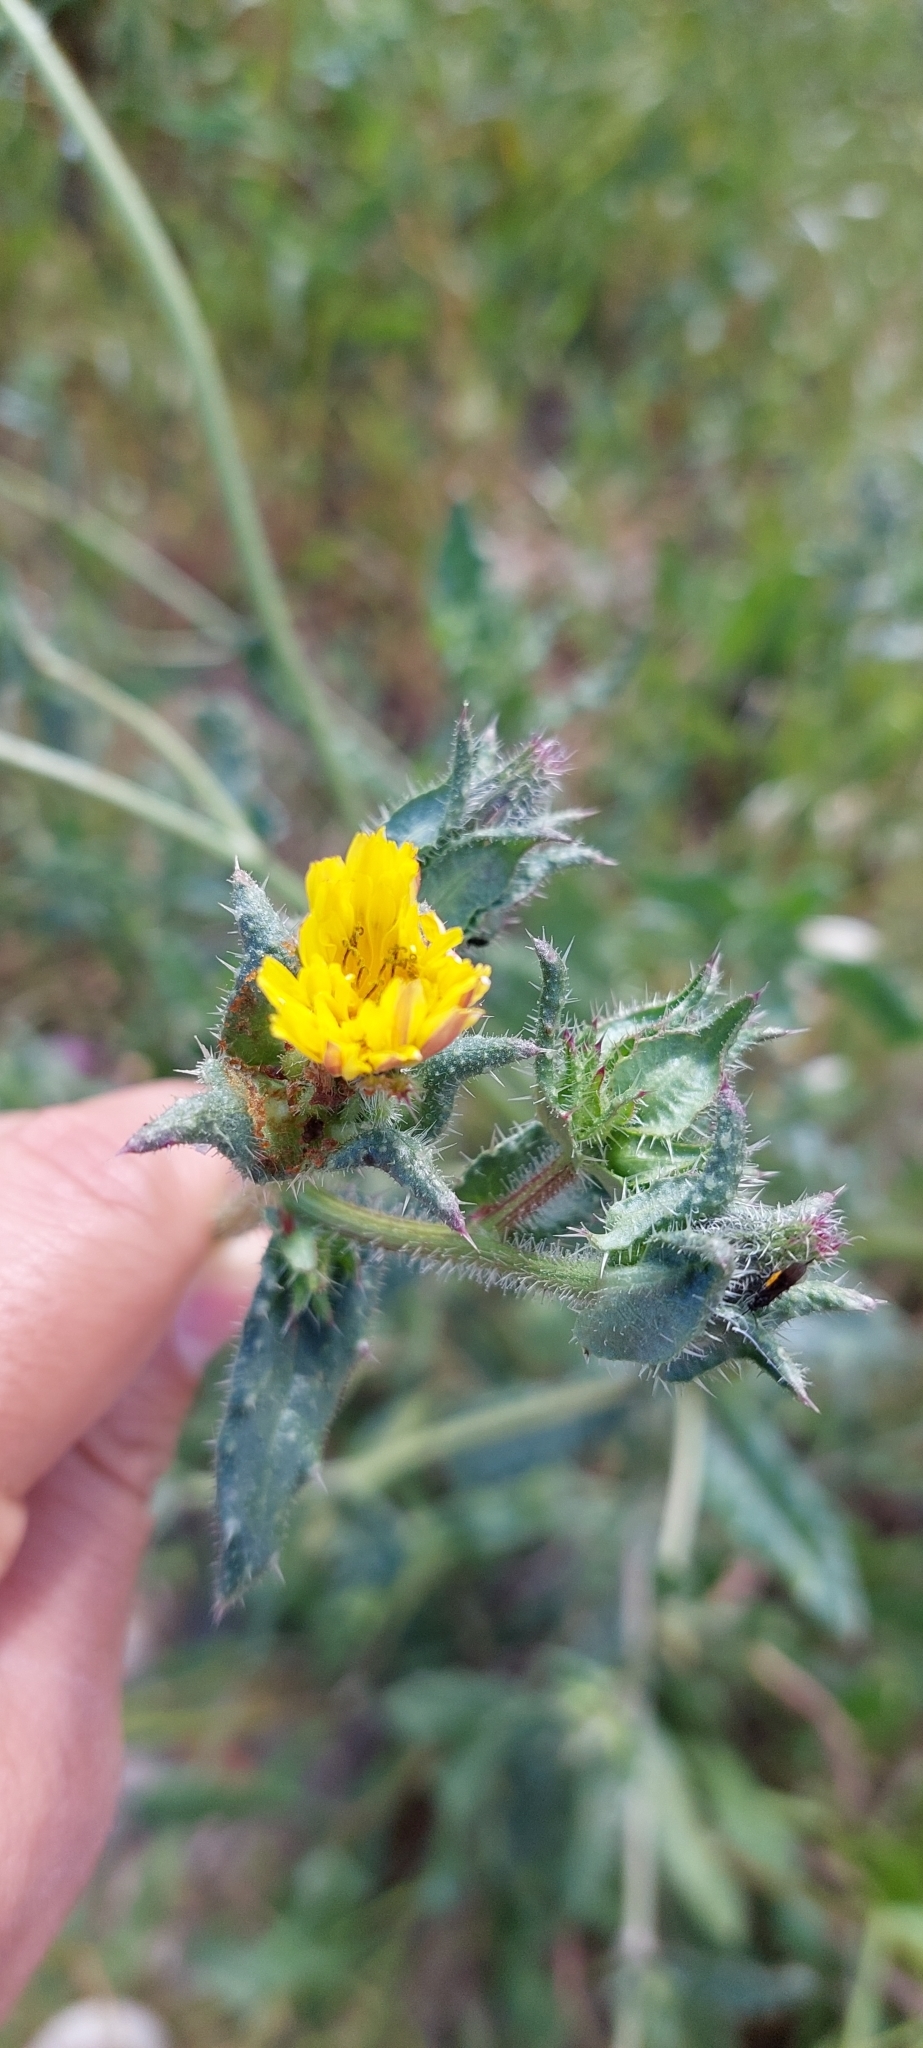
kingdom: Plantae
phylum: Tracheophyta
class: Magnoliopsida
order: Asterales
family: Asteraceae
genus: Helminthotheca
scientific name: Helminthotheca echioides
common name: Ox-tongue
